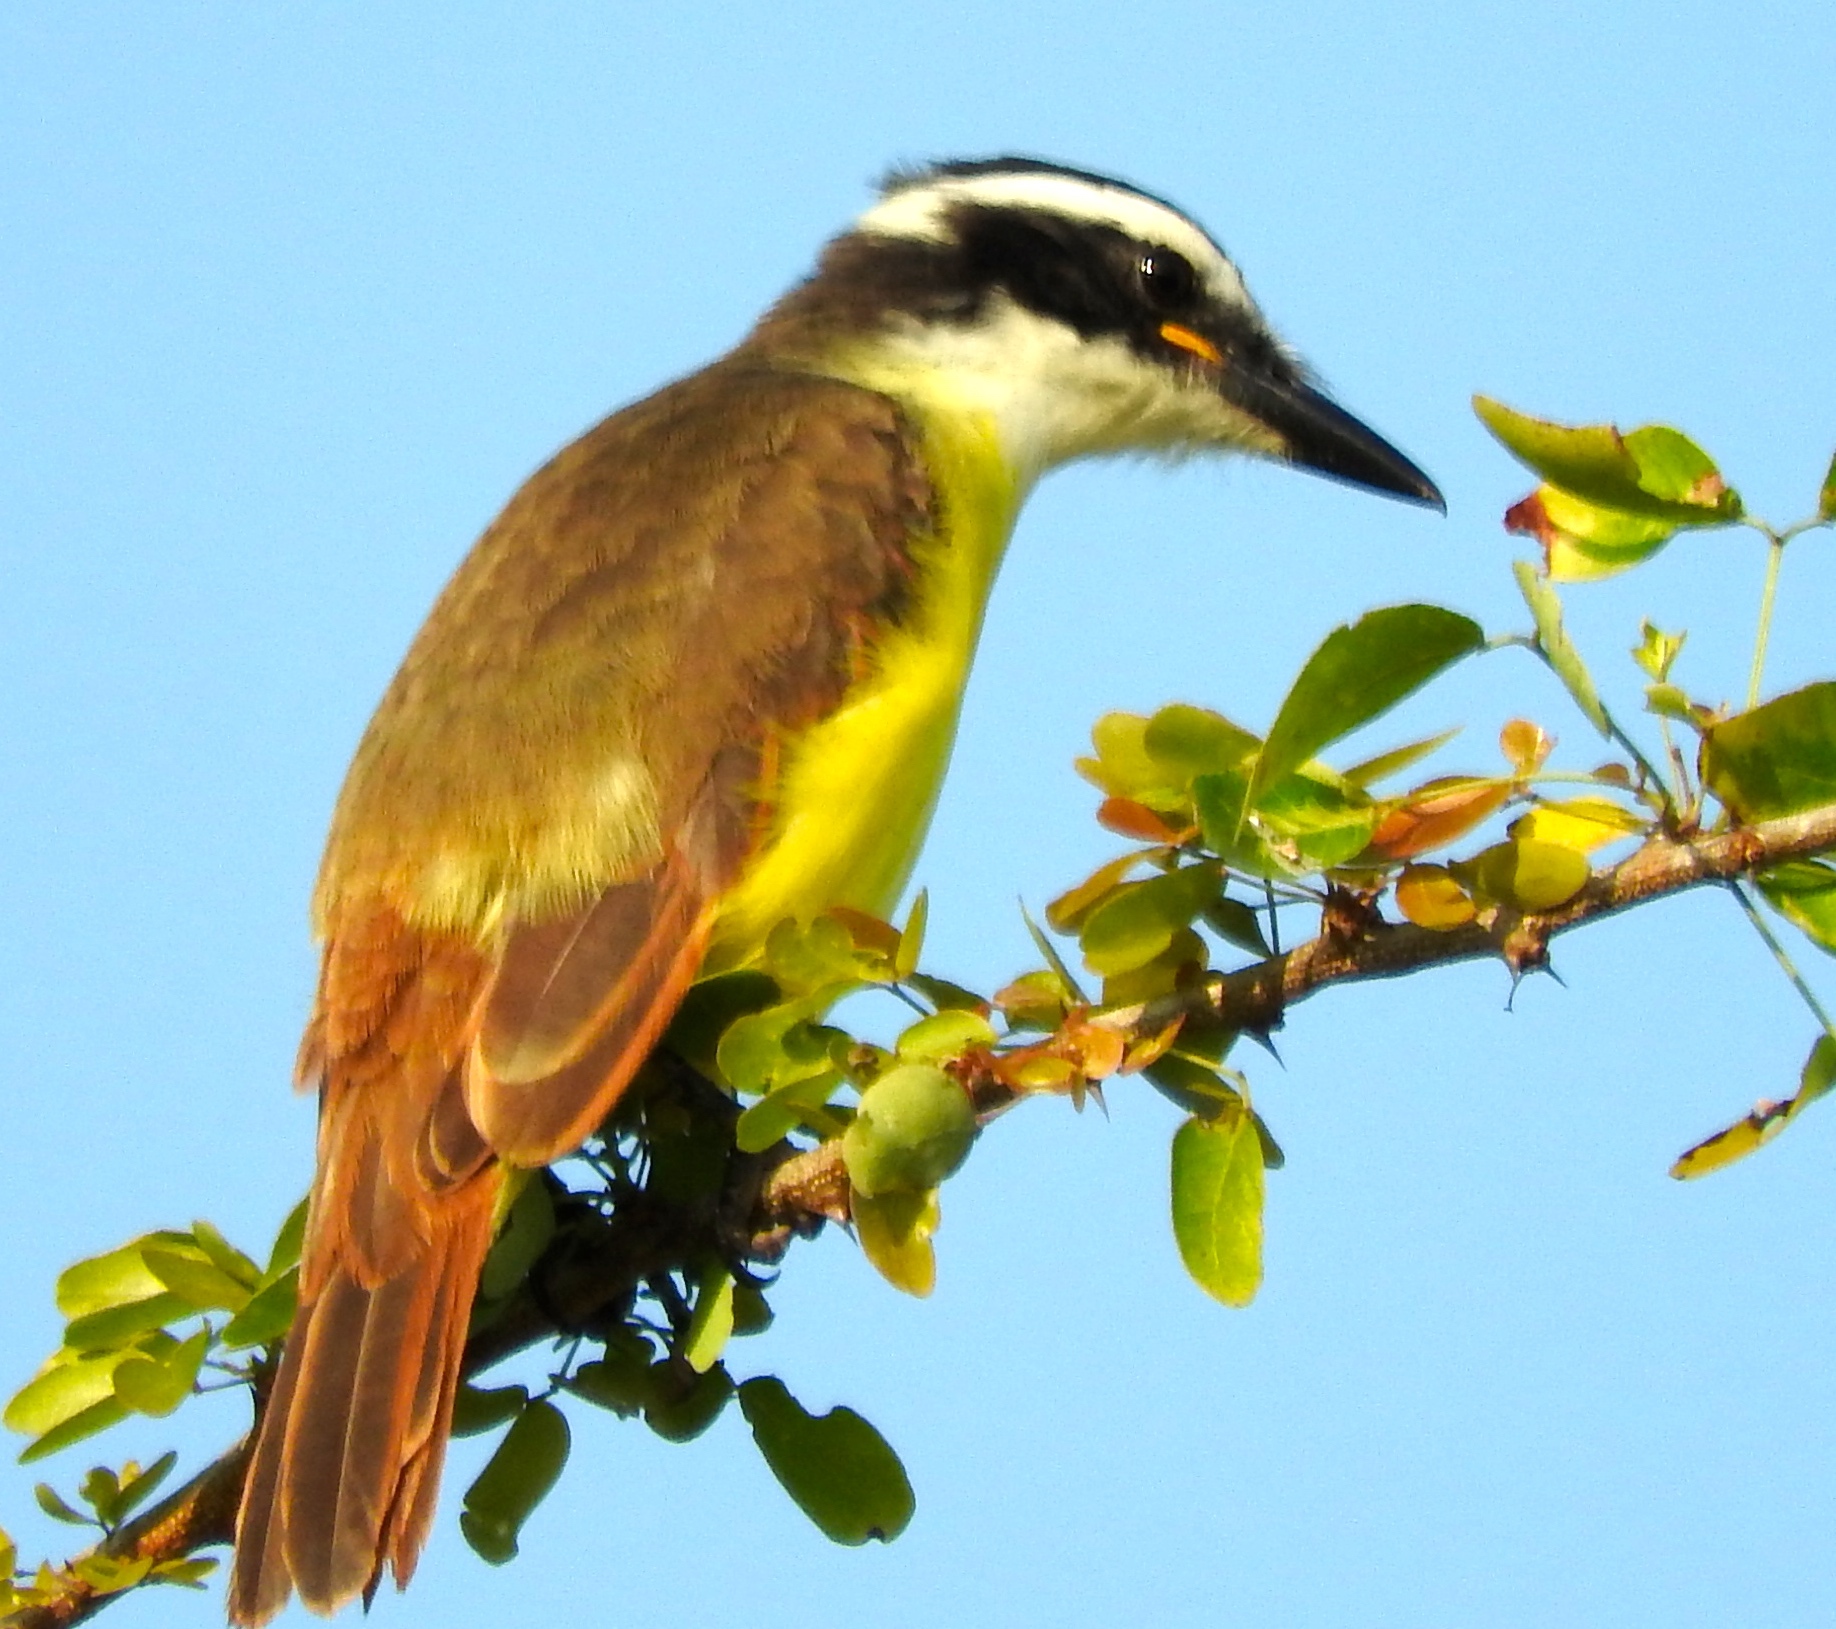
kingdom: Animalia
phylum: Chordata
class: Aves
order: Passeriformes
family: Tyrannidae
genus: Pitangus
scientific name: Pitangus sulphuratus
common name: Great kiskadee
